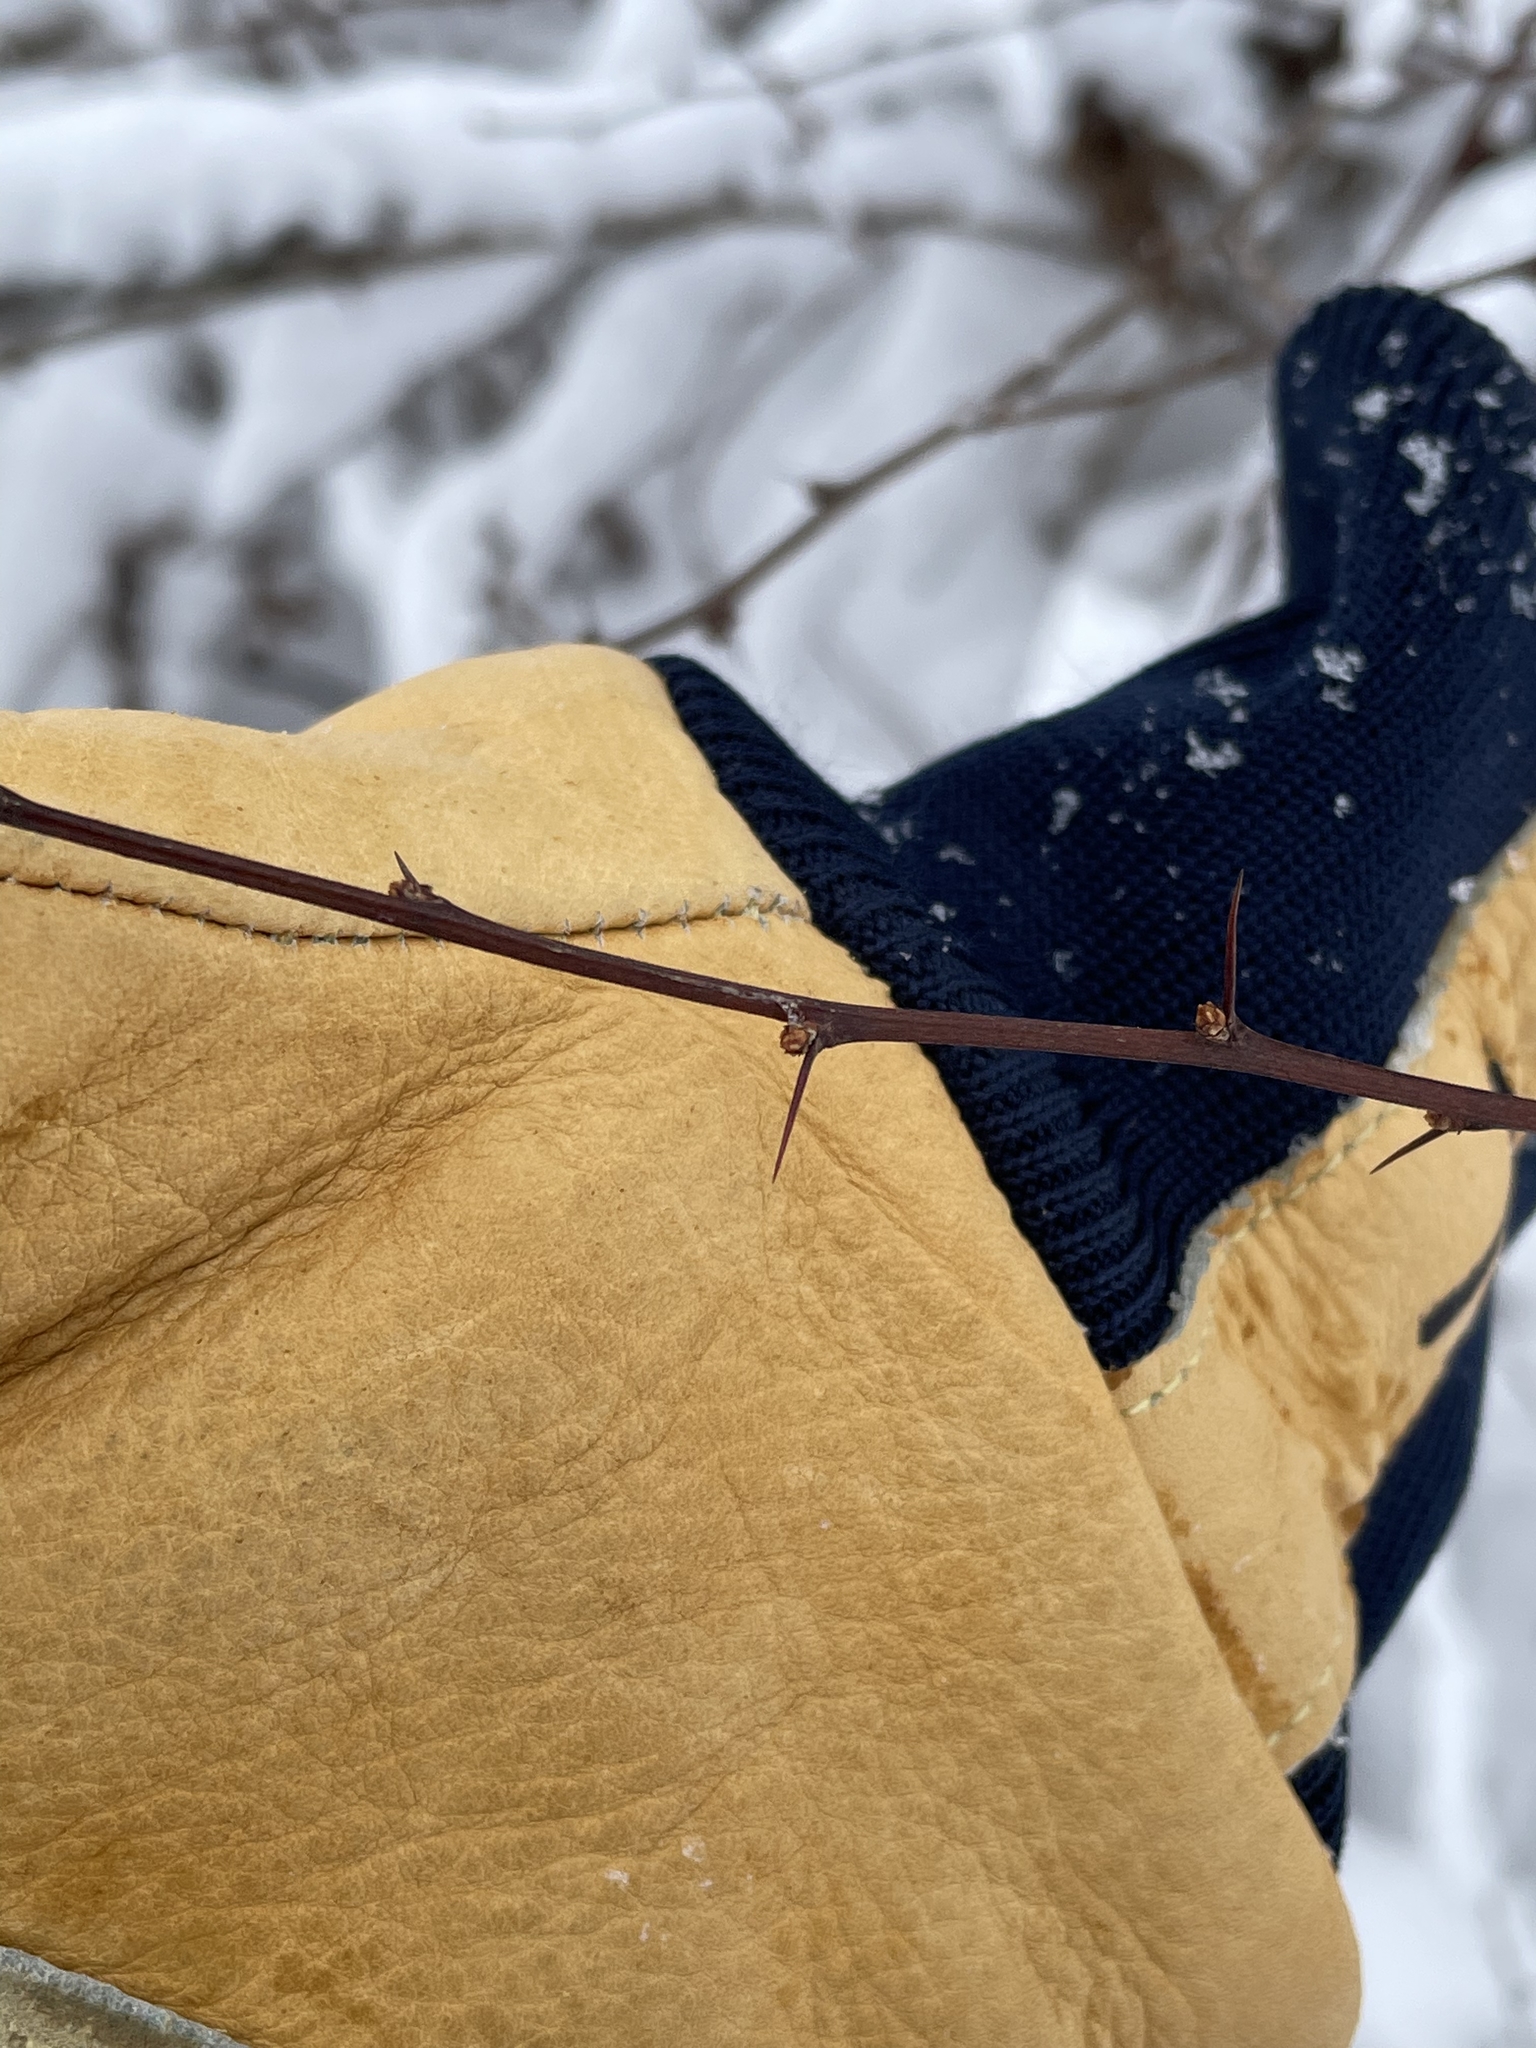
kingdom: Plantae
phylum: Tracheophyta
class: Magnoliopsida
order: Ranunculales
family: Berberidaceae
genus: Berberis
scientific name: Berberis thunbergii
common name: Japanese barberry
